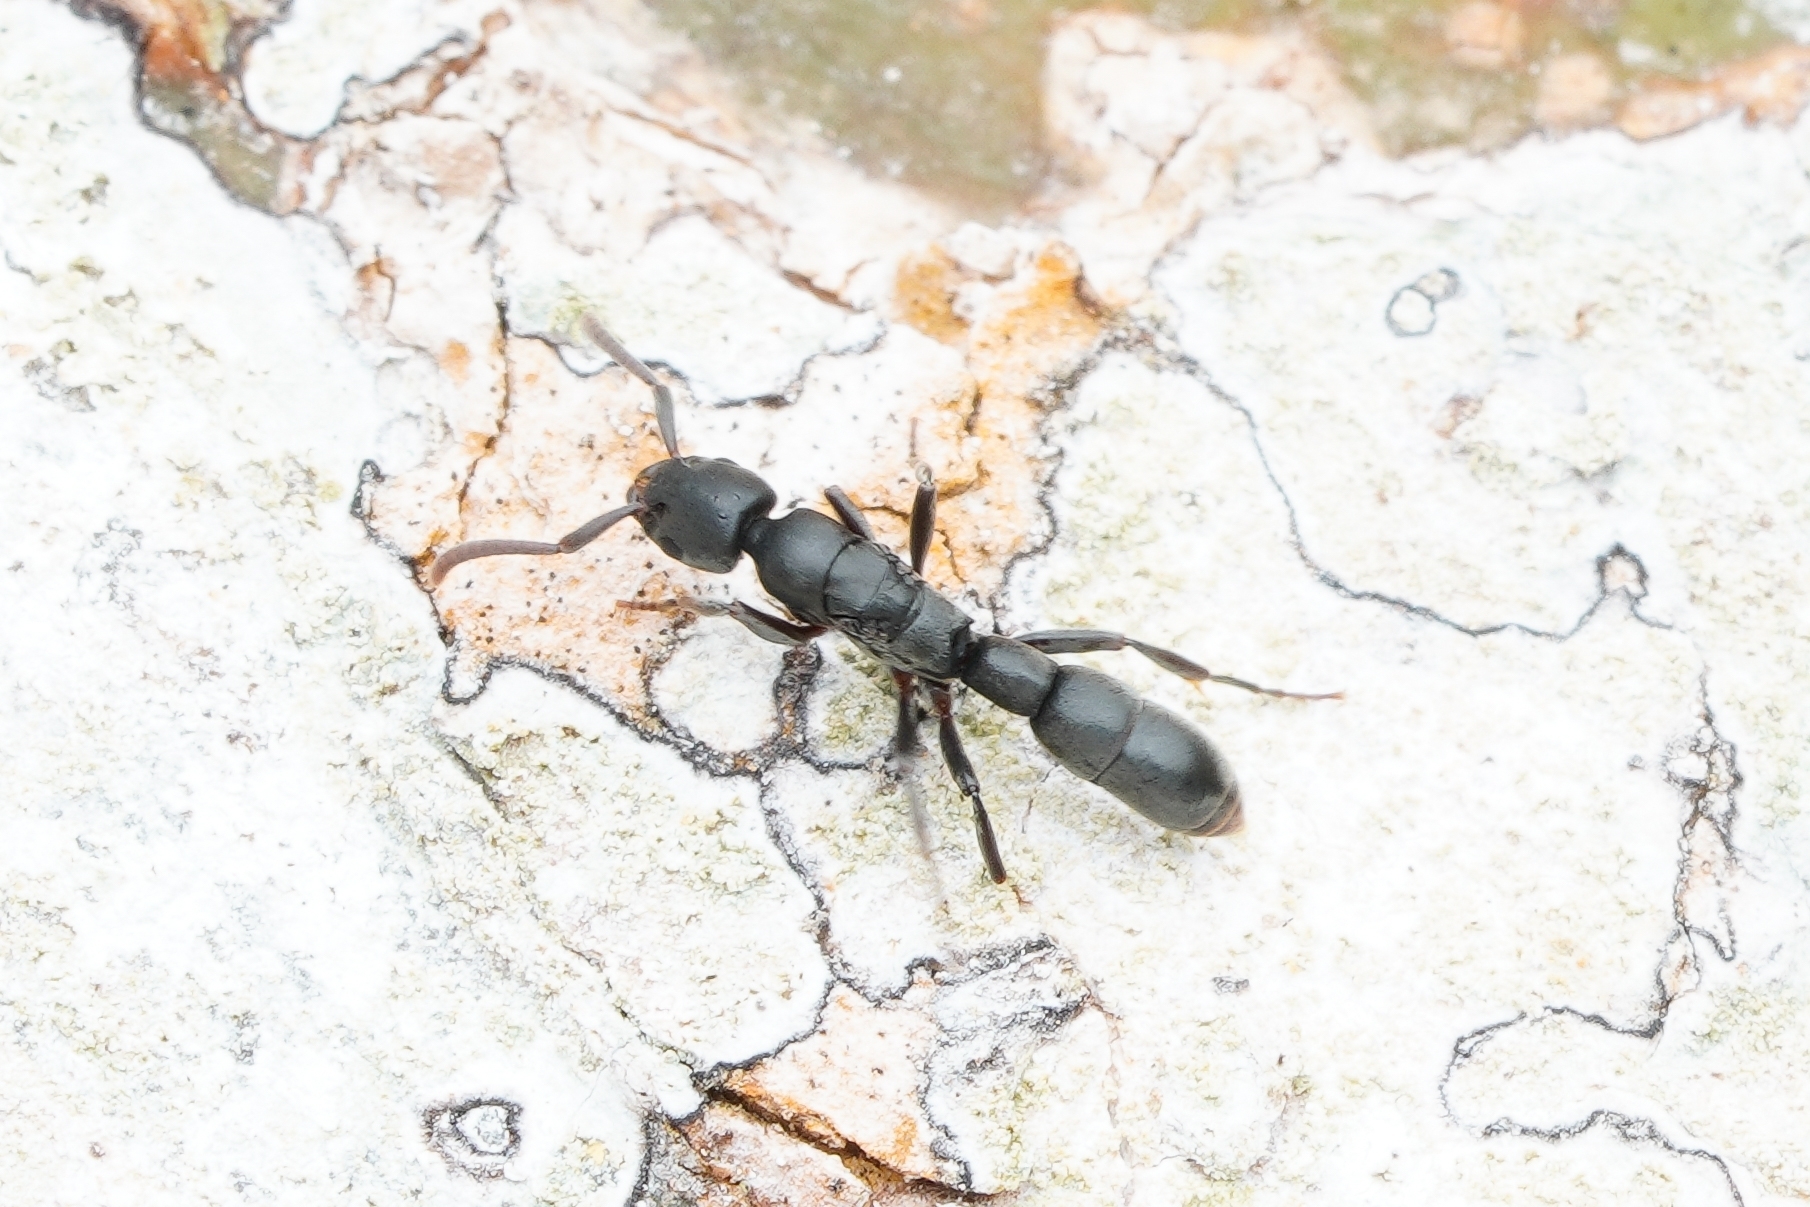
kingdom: Animalia
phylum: Arthropoda
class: Insecta
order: Hymenoptera
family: Formicidae
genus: Platythyrea
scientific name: Platythyrea parallela
